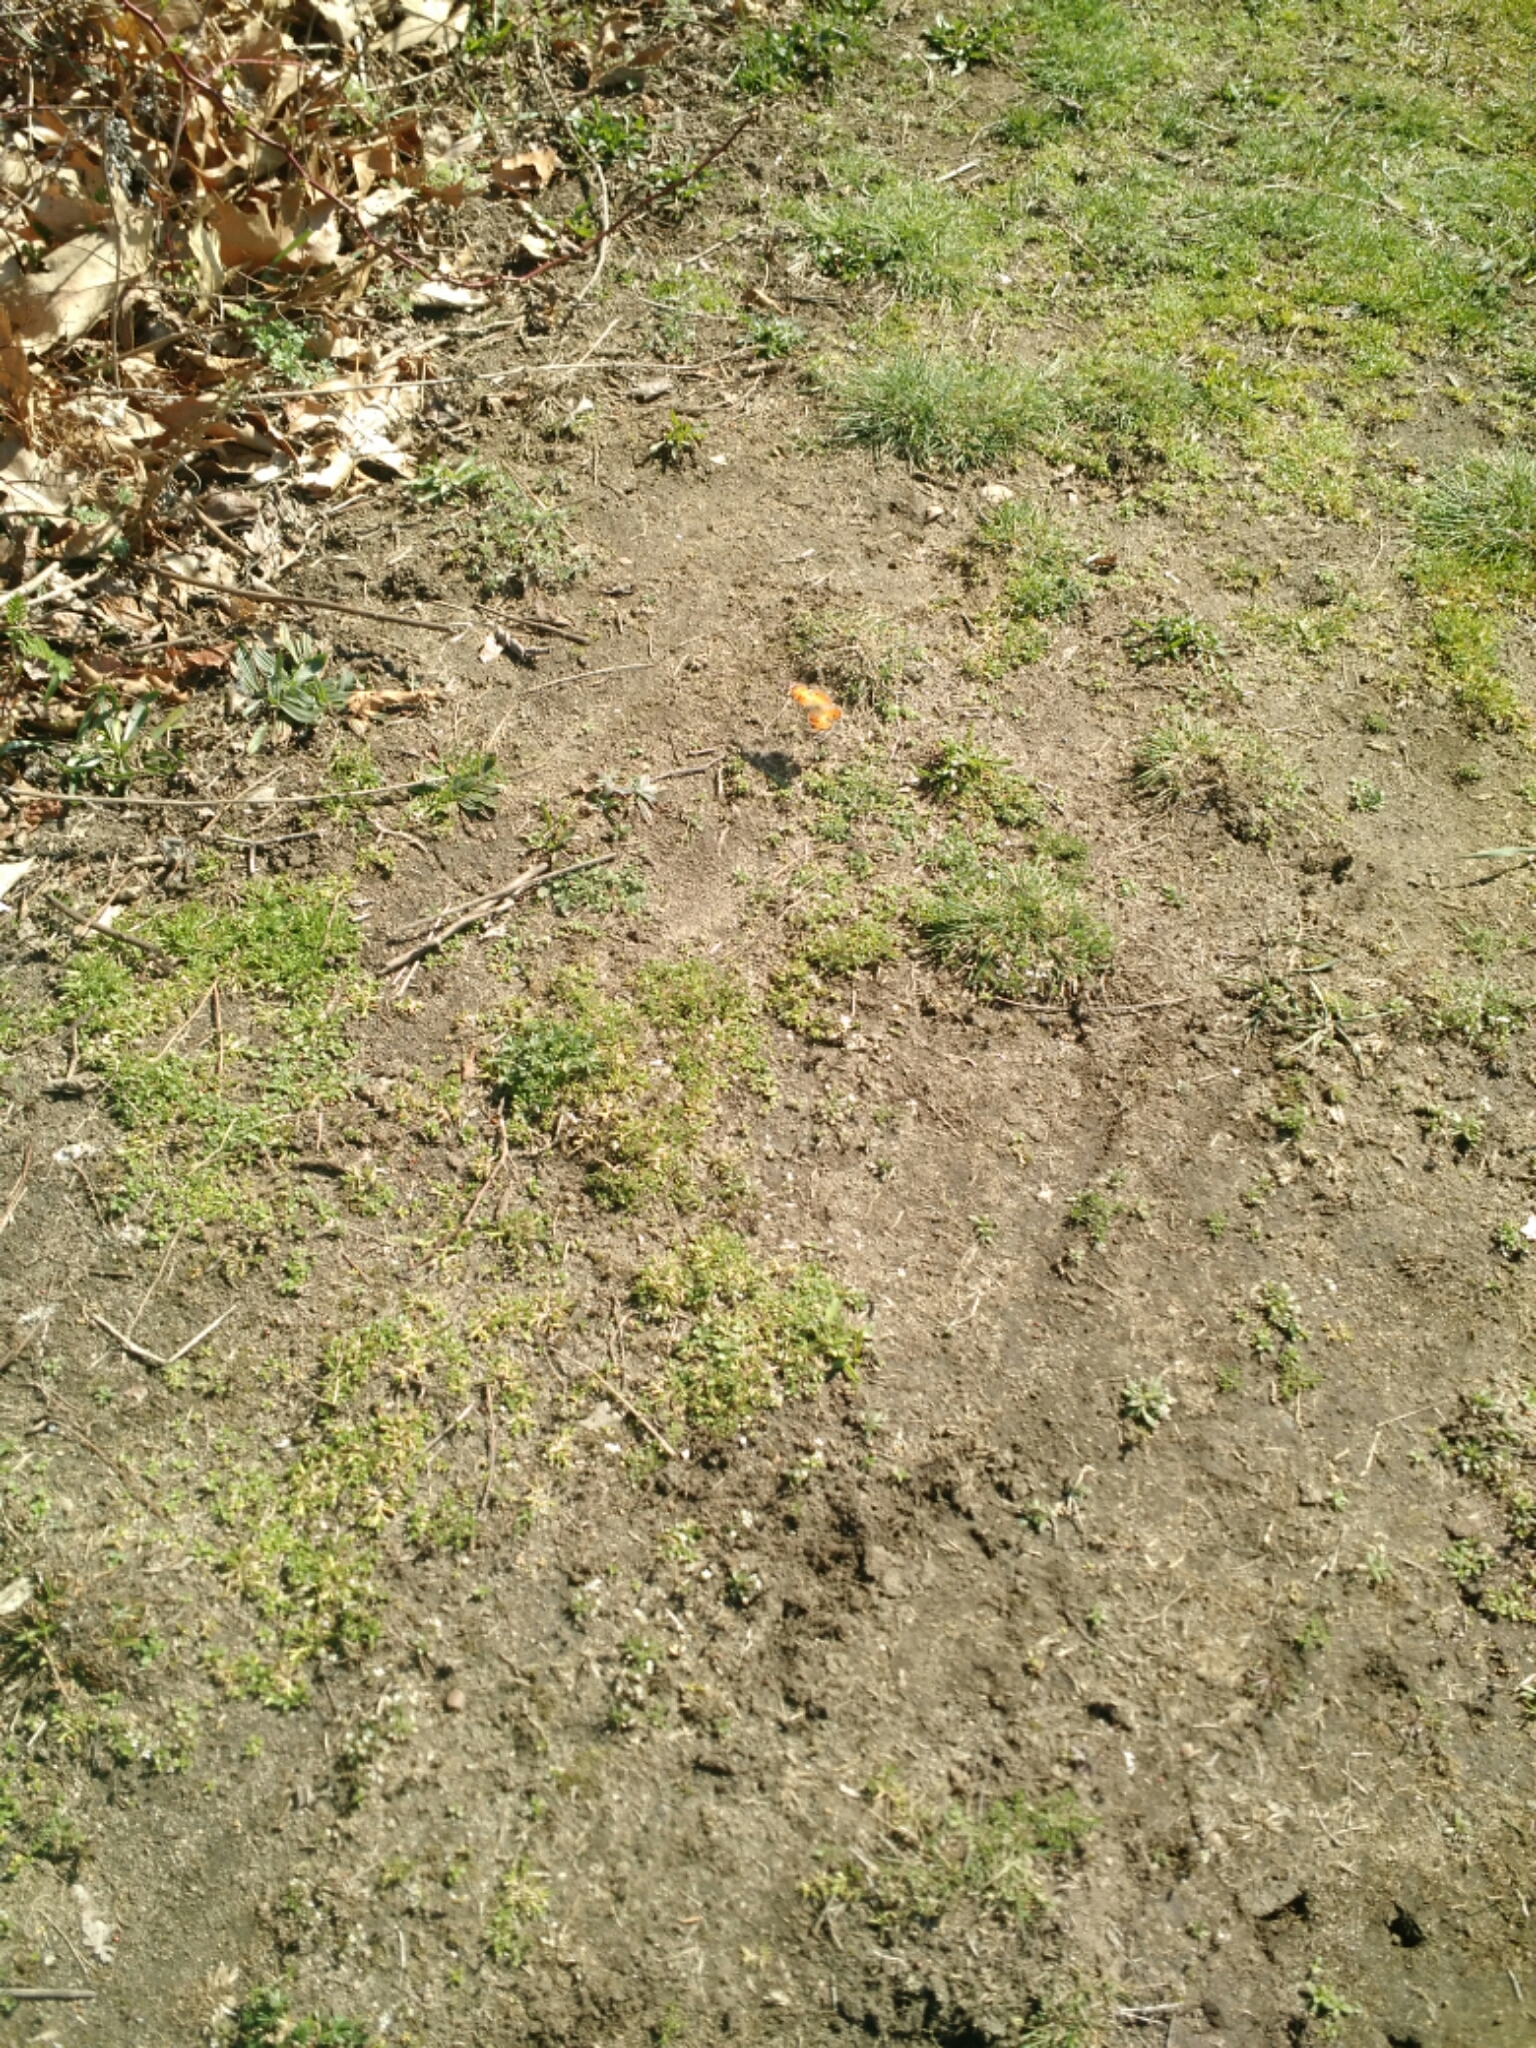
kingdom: Animalia
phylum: Arthropoda
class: Insecta
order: Lepidoptera
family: Nymphalidae
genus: Vanessa
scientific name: Vanessa cardui
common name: Painted lady
